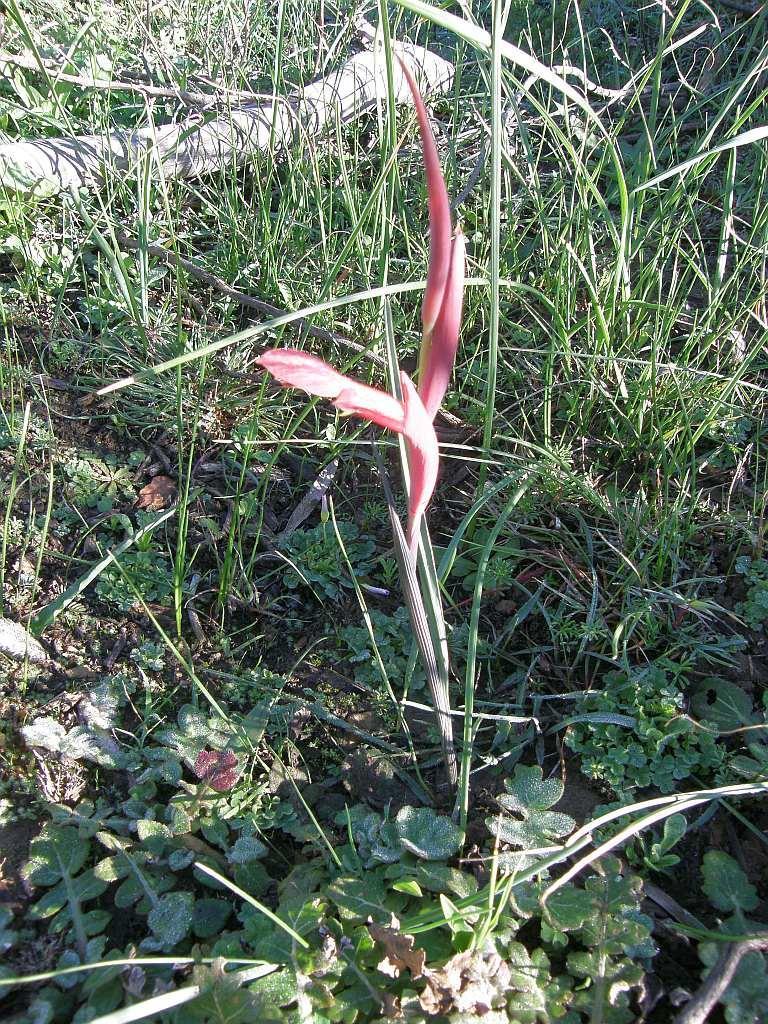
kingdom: Plantae
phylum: Tracheophyta
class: Liliopsida
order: Asparagales
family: Iridaceae
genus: Gladiolus
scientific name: Gladiolus abbreviatus
